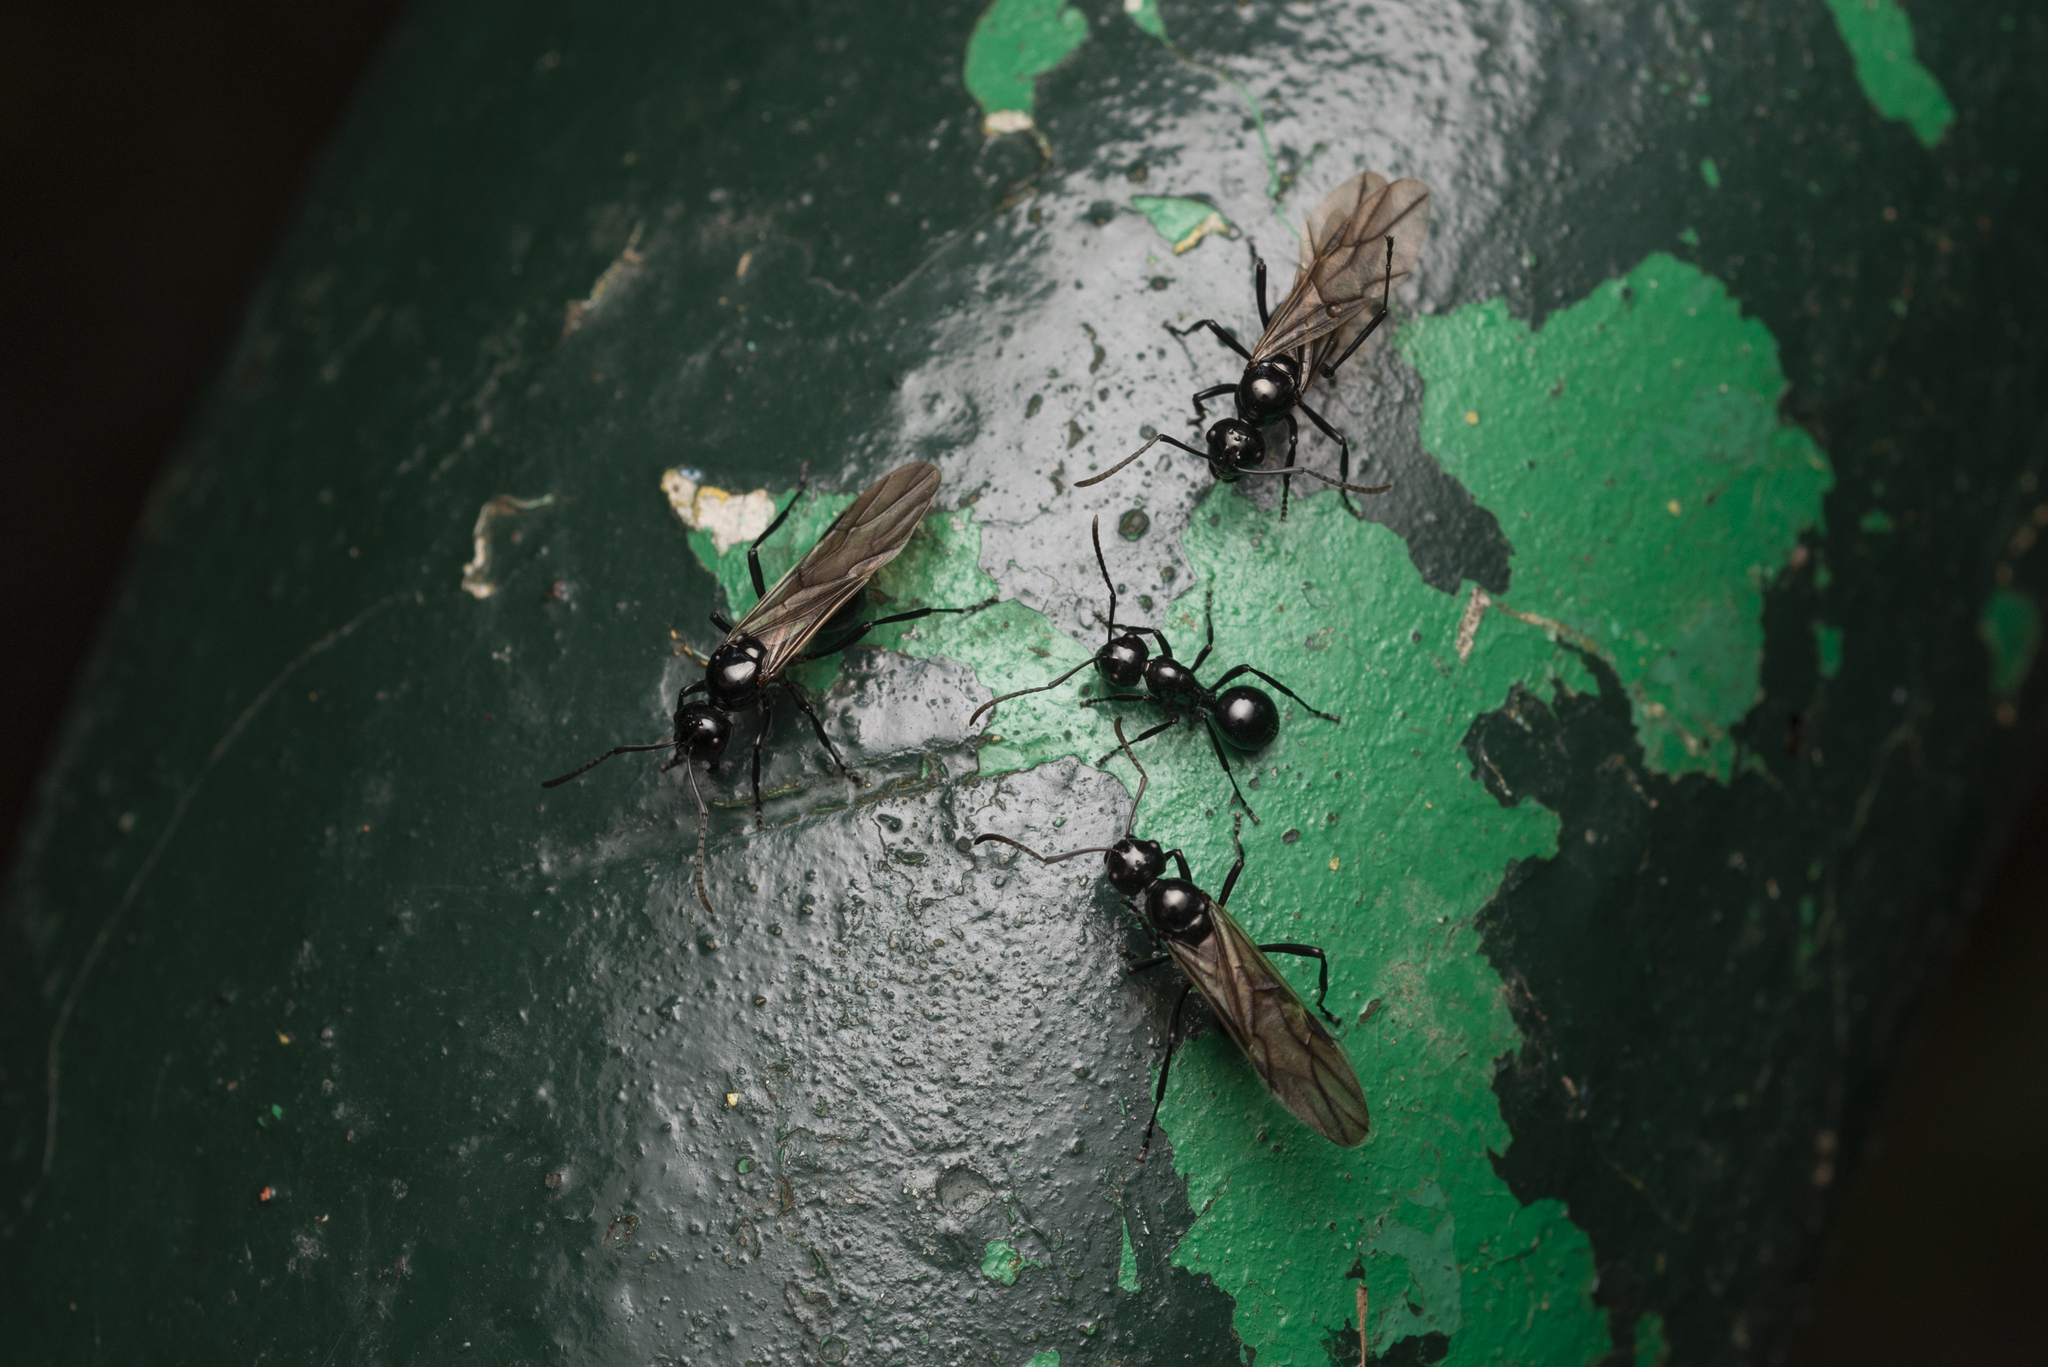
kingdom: Animalia
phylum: Arthropoda
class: Insecta
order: Hymenoptera
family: Formicidae
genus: Polyrhachis
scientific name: Polyrhachis demangei
